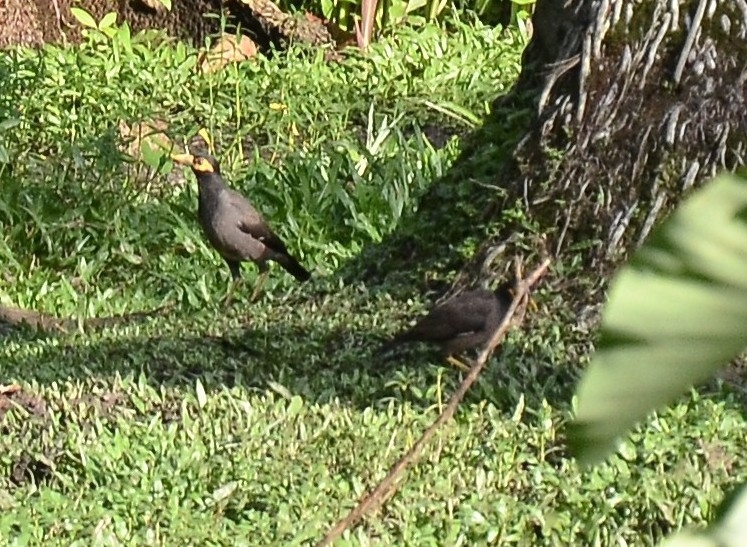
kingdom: Animalia
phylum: Chordata
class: Aves
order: Passeriformes
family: Sturnidae
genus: Acridotheres
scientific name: Acridotheres tristis
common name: Common myna
